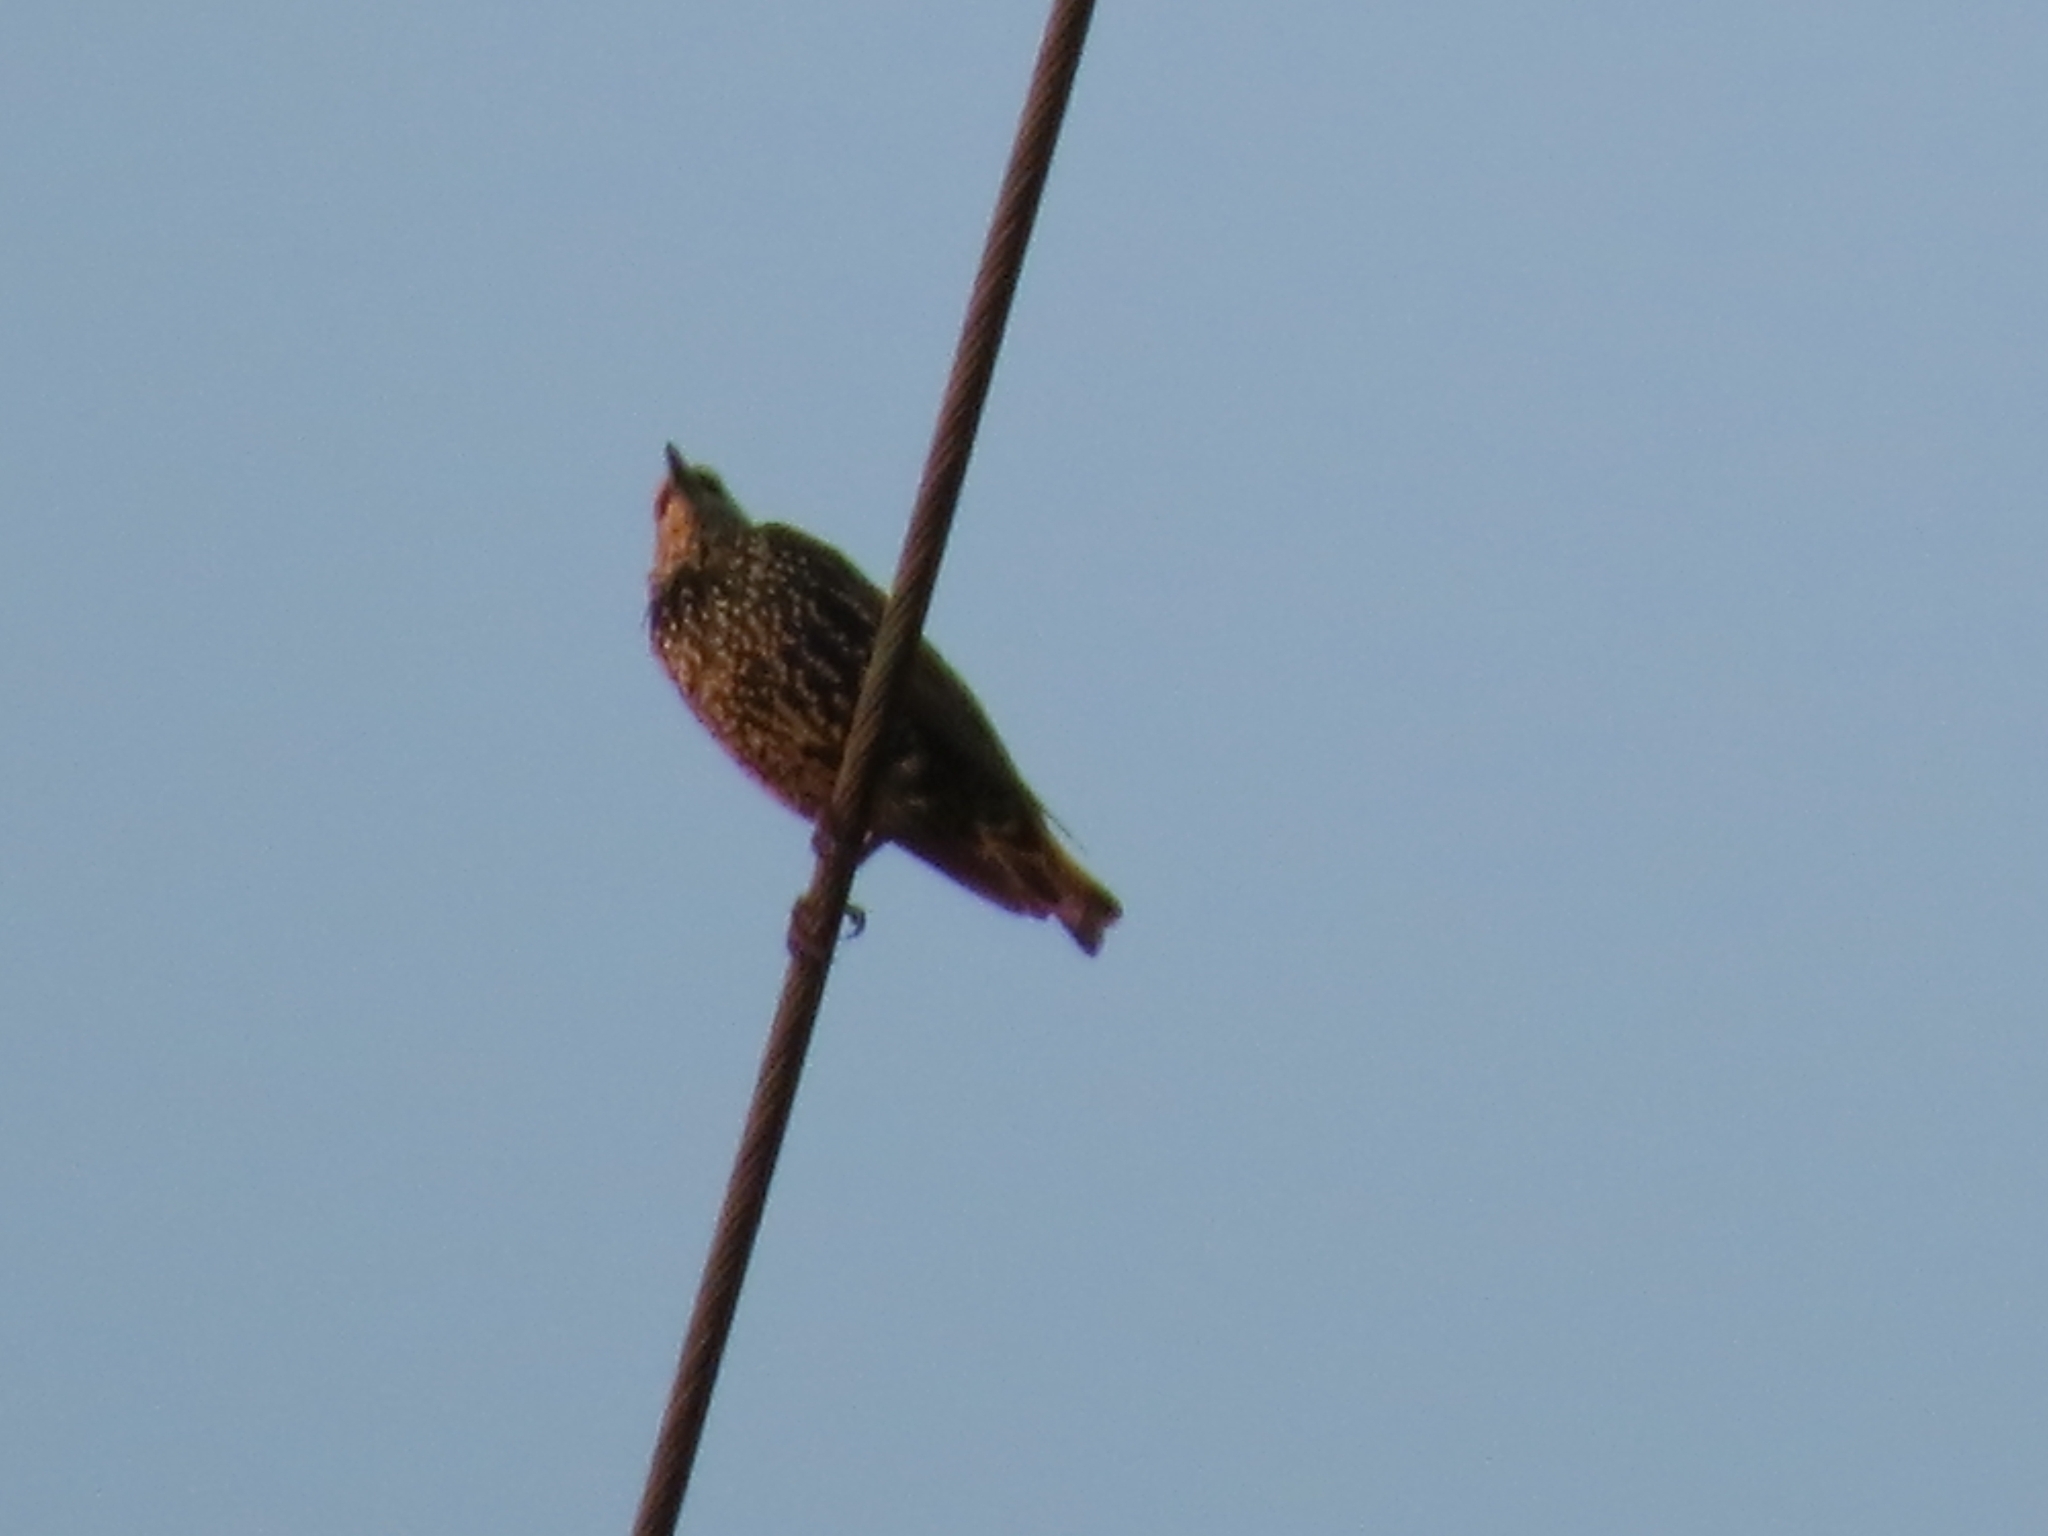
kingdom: Animalia
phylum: Chordata
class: Aves
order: Passeriformes
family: Sturnidae
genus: Sturnus
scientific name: Sturnus vulgaris
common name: Common starling
